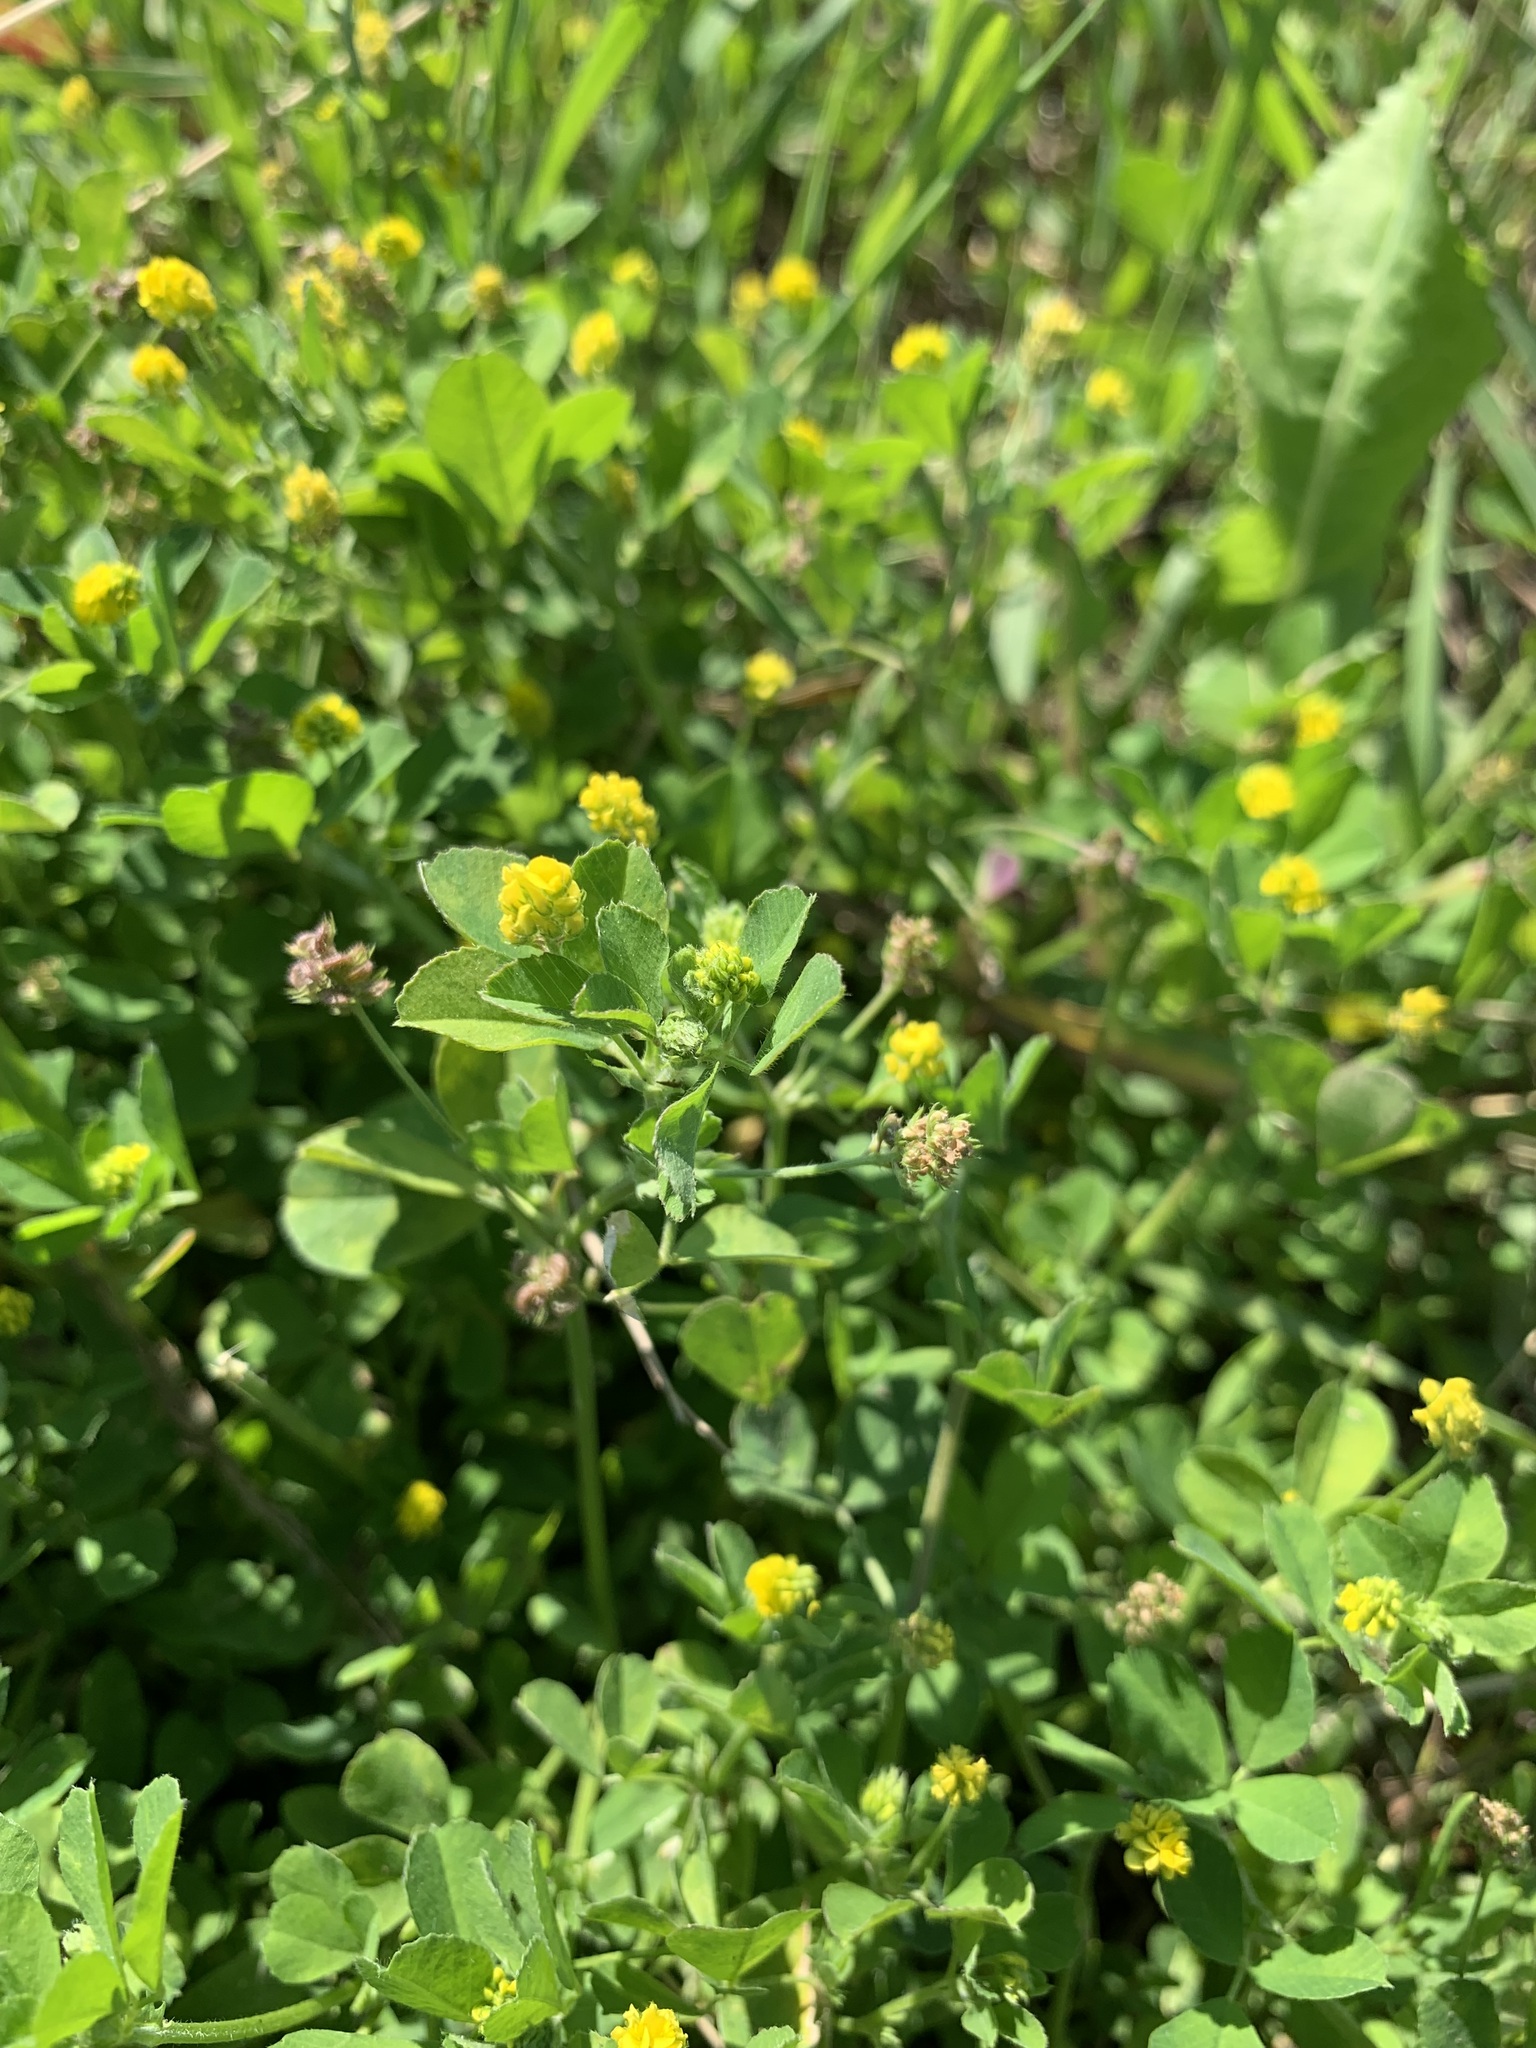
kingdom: Plantae
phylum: Tracheophyta
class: Magnoliopsida
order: Fabales
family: Fabaceae
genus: Medicago
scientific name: Medicago lupulina
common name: Black medick
